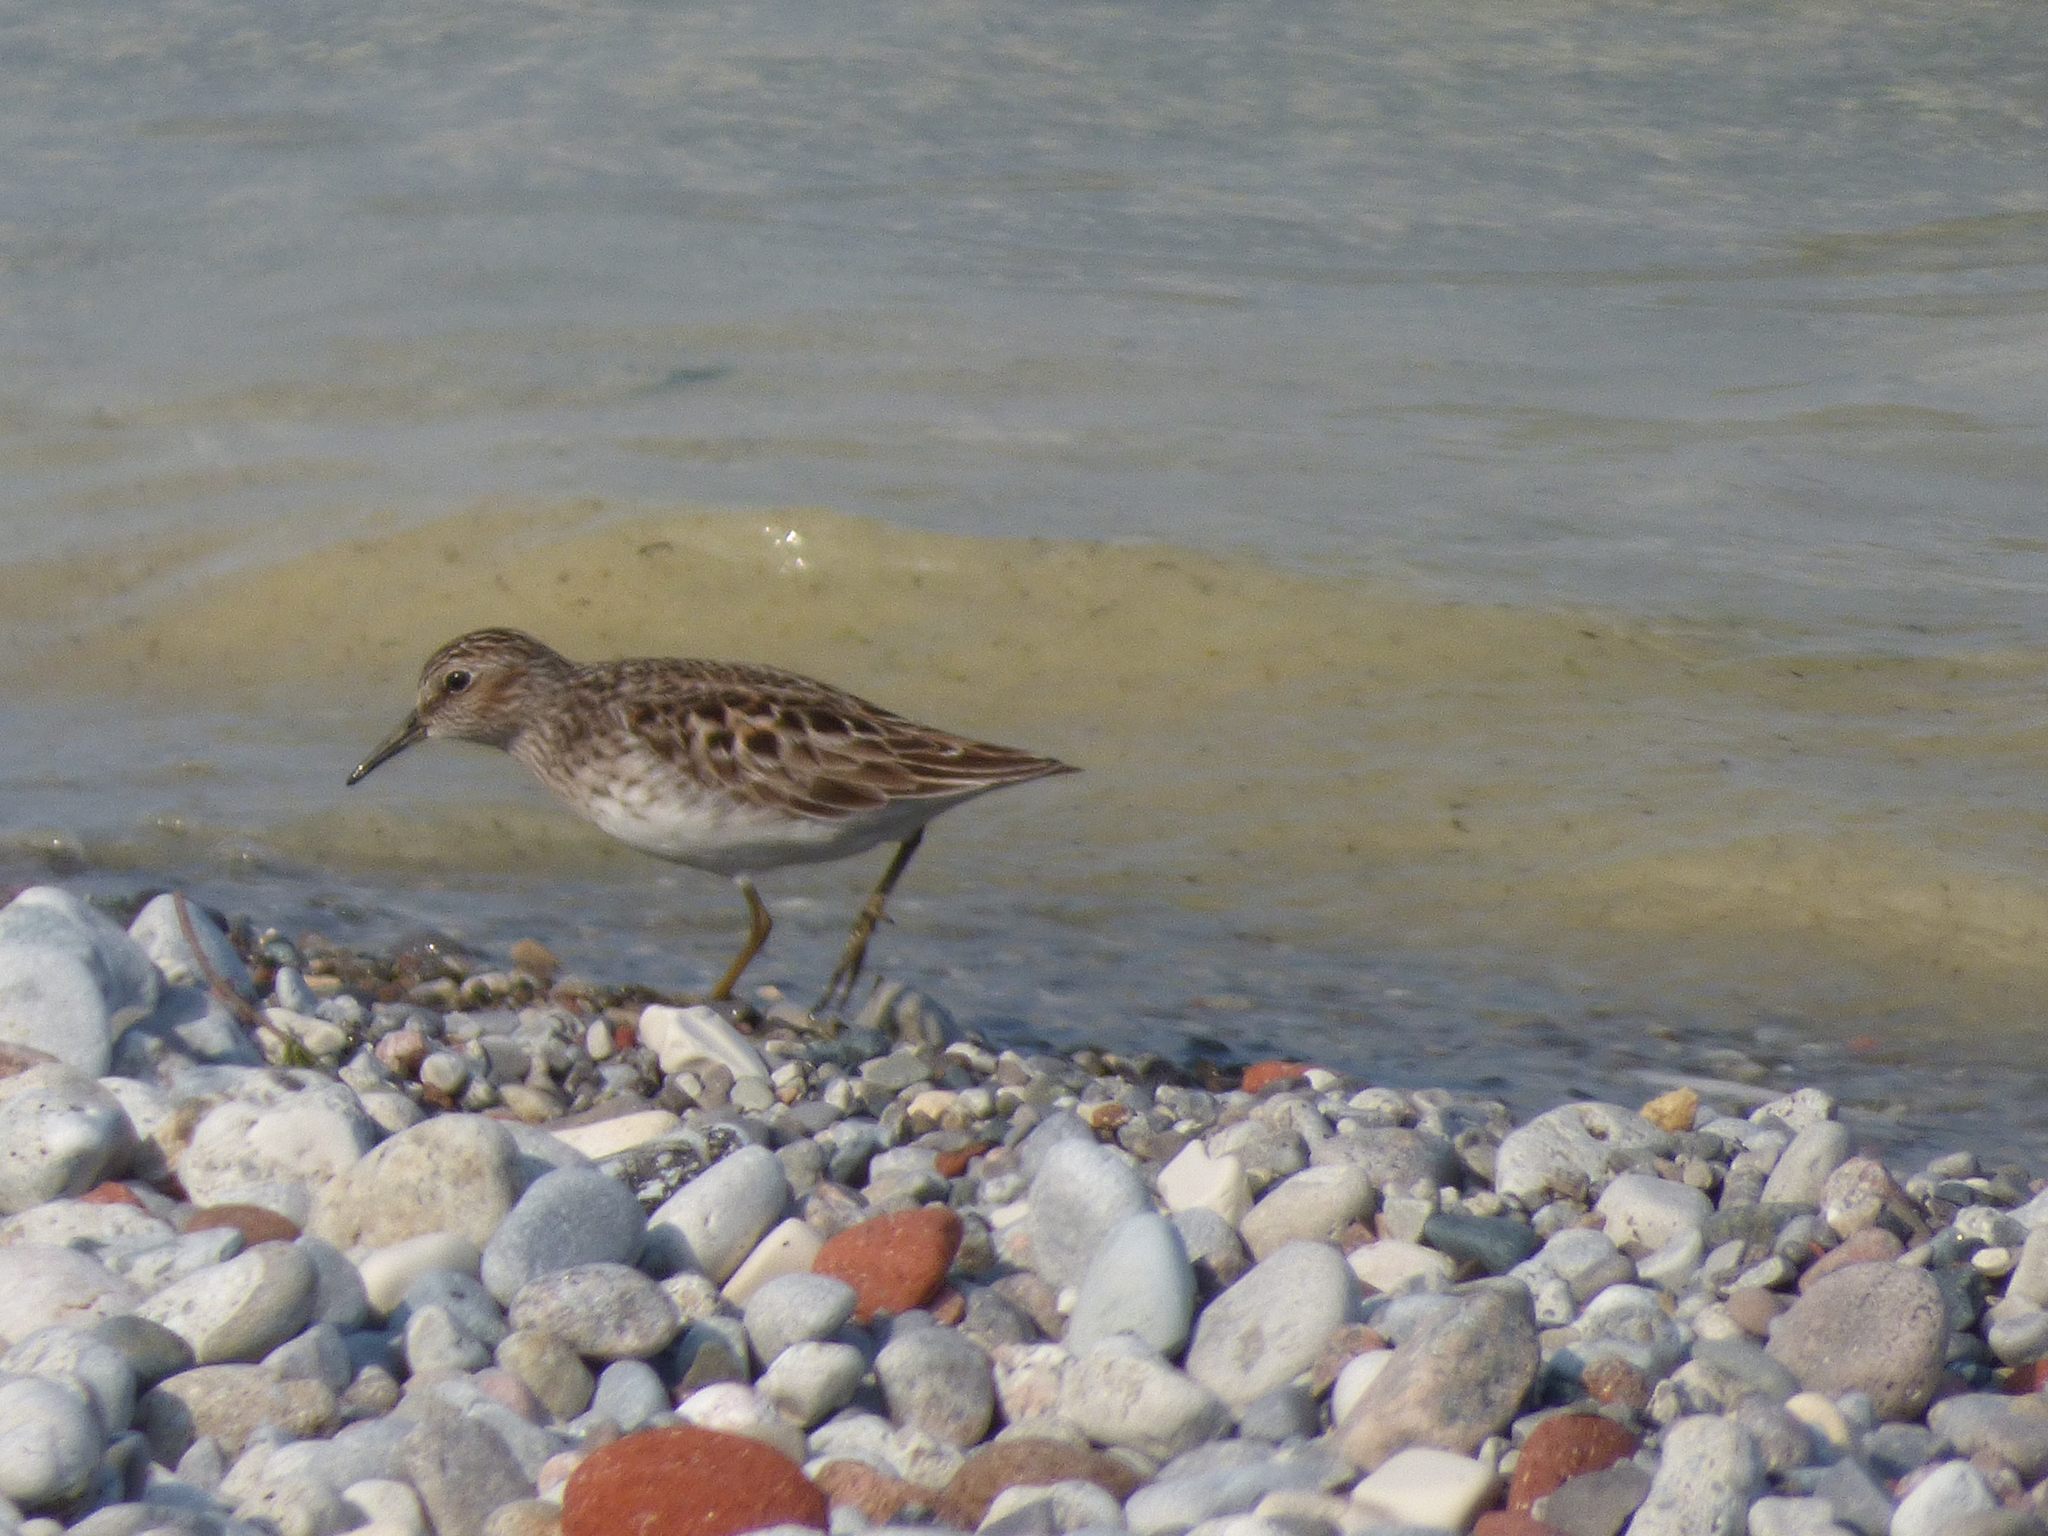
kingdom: Animalia
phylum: Chordata
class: Aves
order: Charadriiformes
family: Scolopacidae
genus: Calidris
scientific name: Calidris minutilla
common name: Least sandpiper
